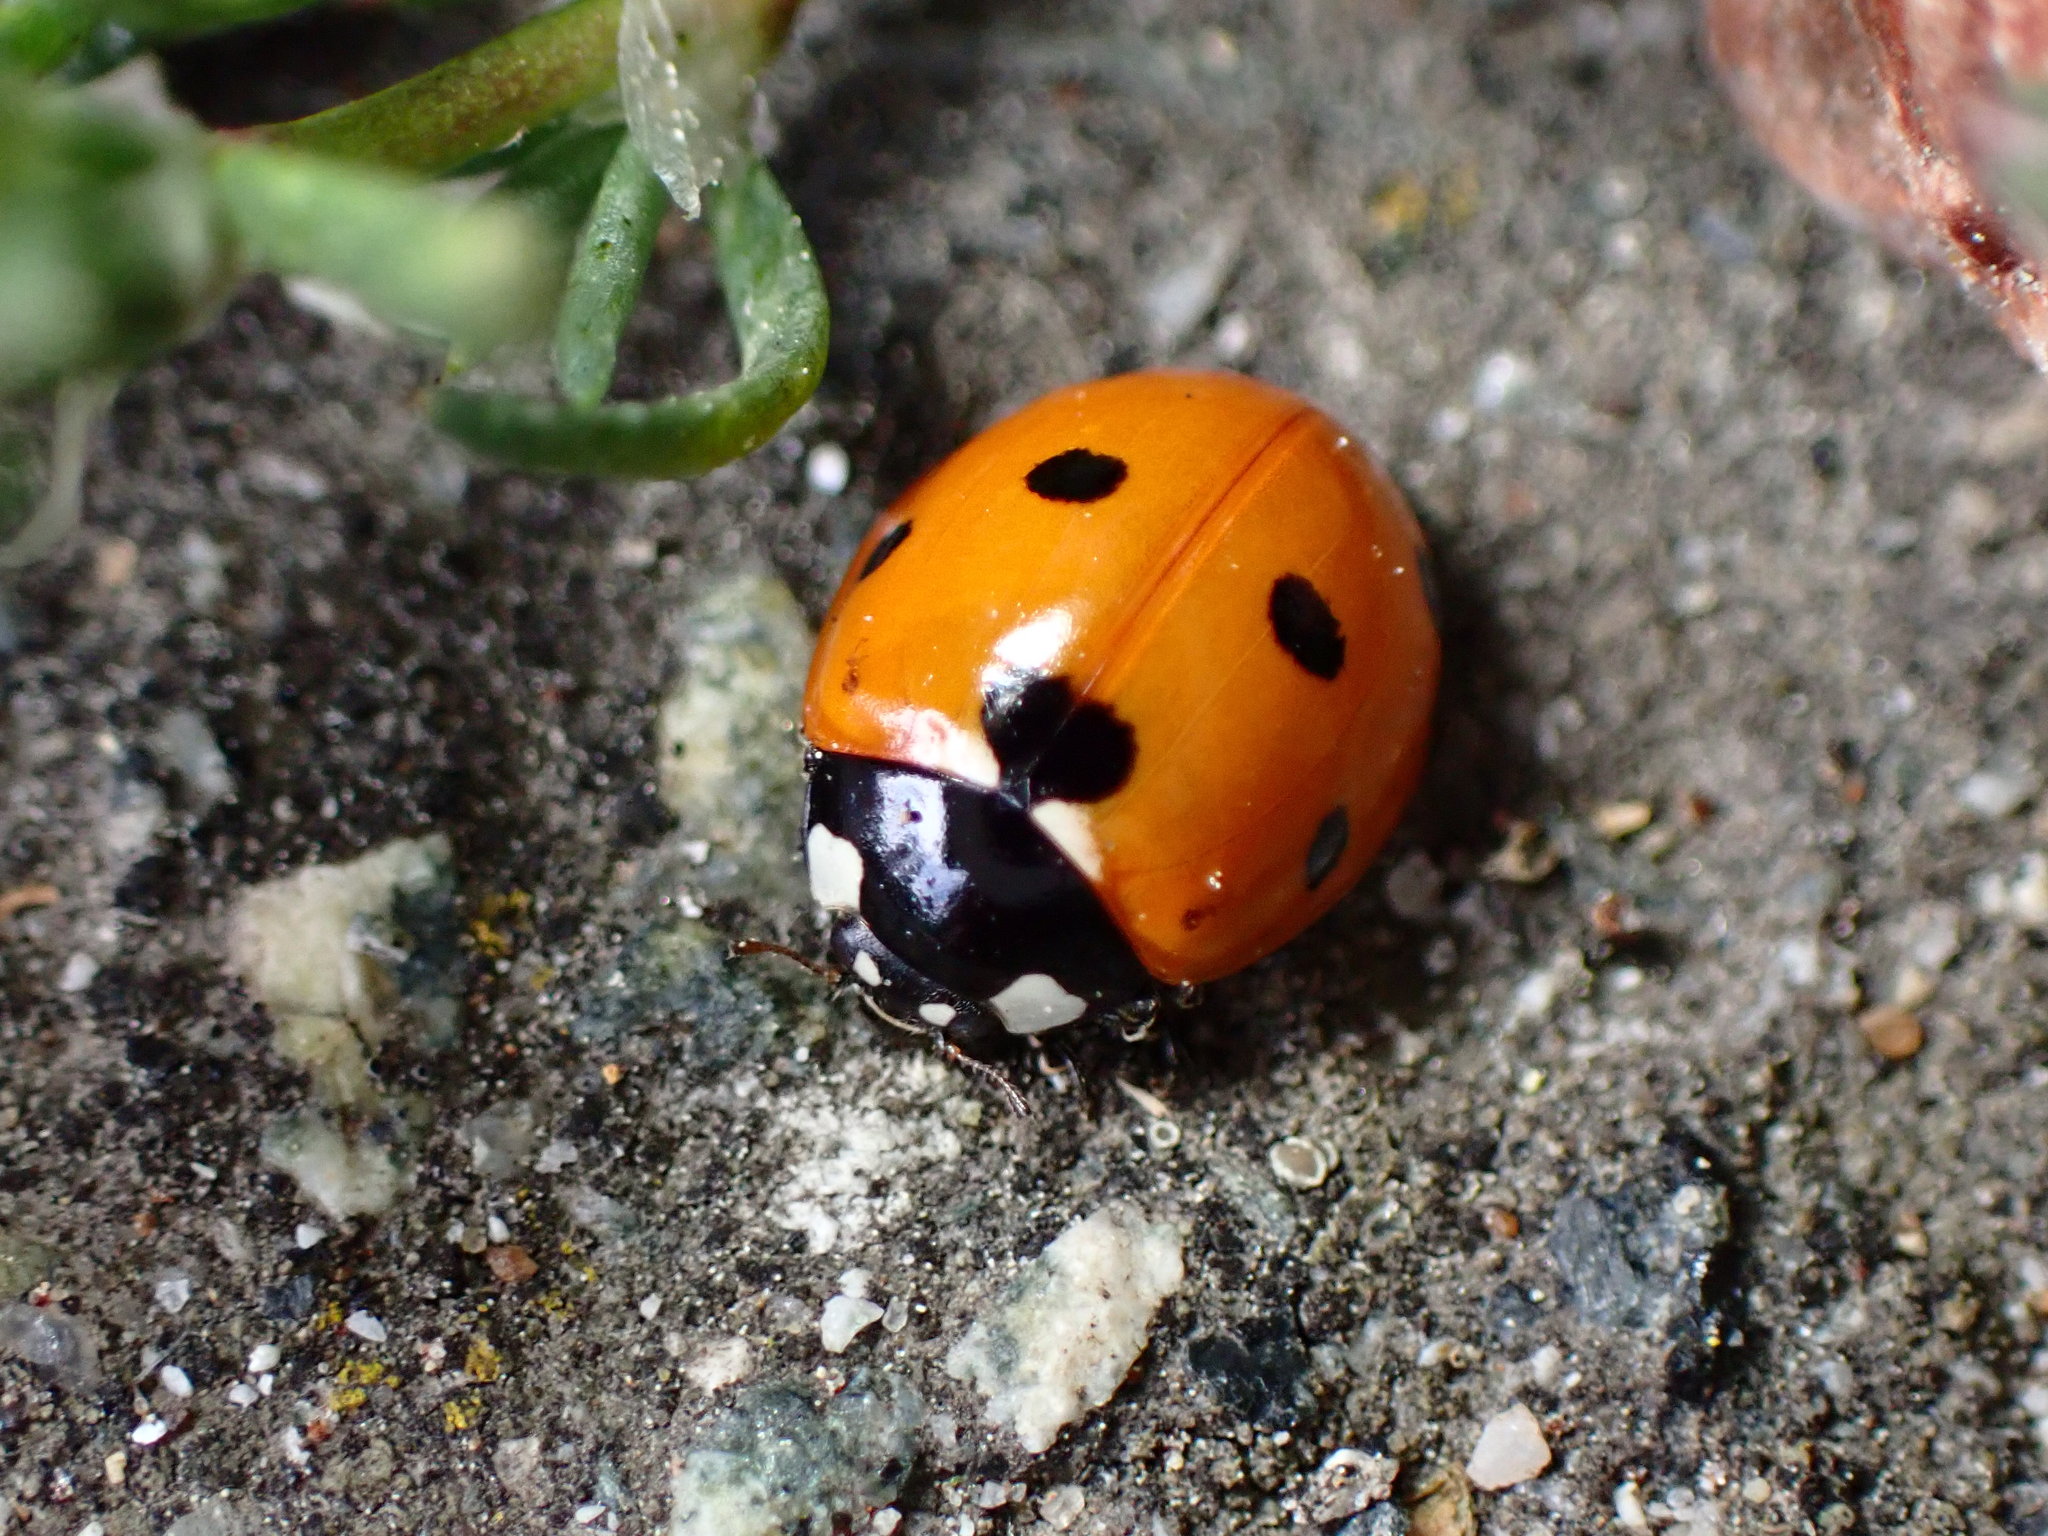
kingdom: Animalia
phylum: Arthropoda
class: Insecta
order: Coleoptera
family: Coccinellidae
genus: Coccinella
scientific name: Coccinella septempunctata
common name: Sevenspotted lady beetle
